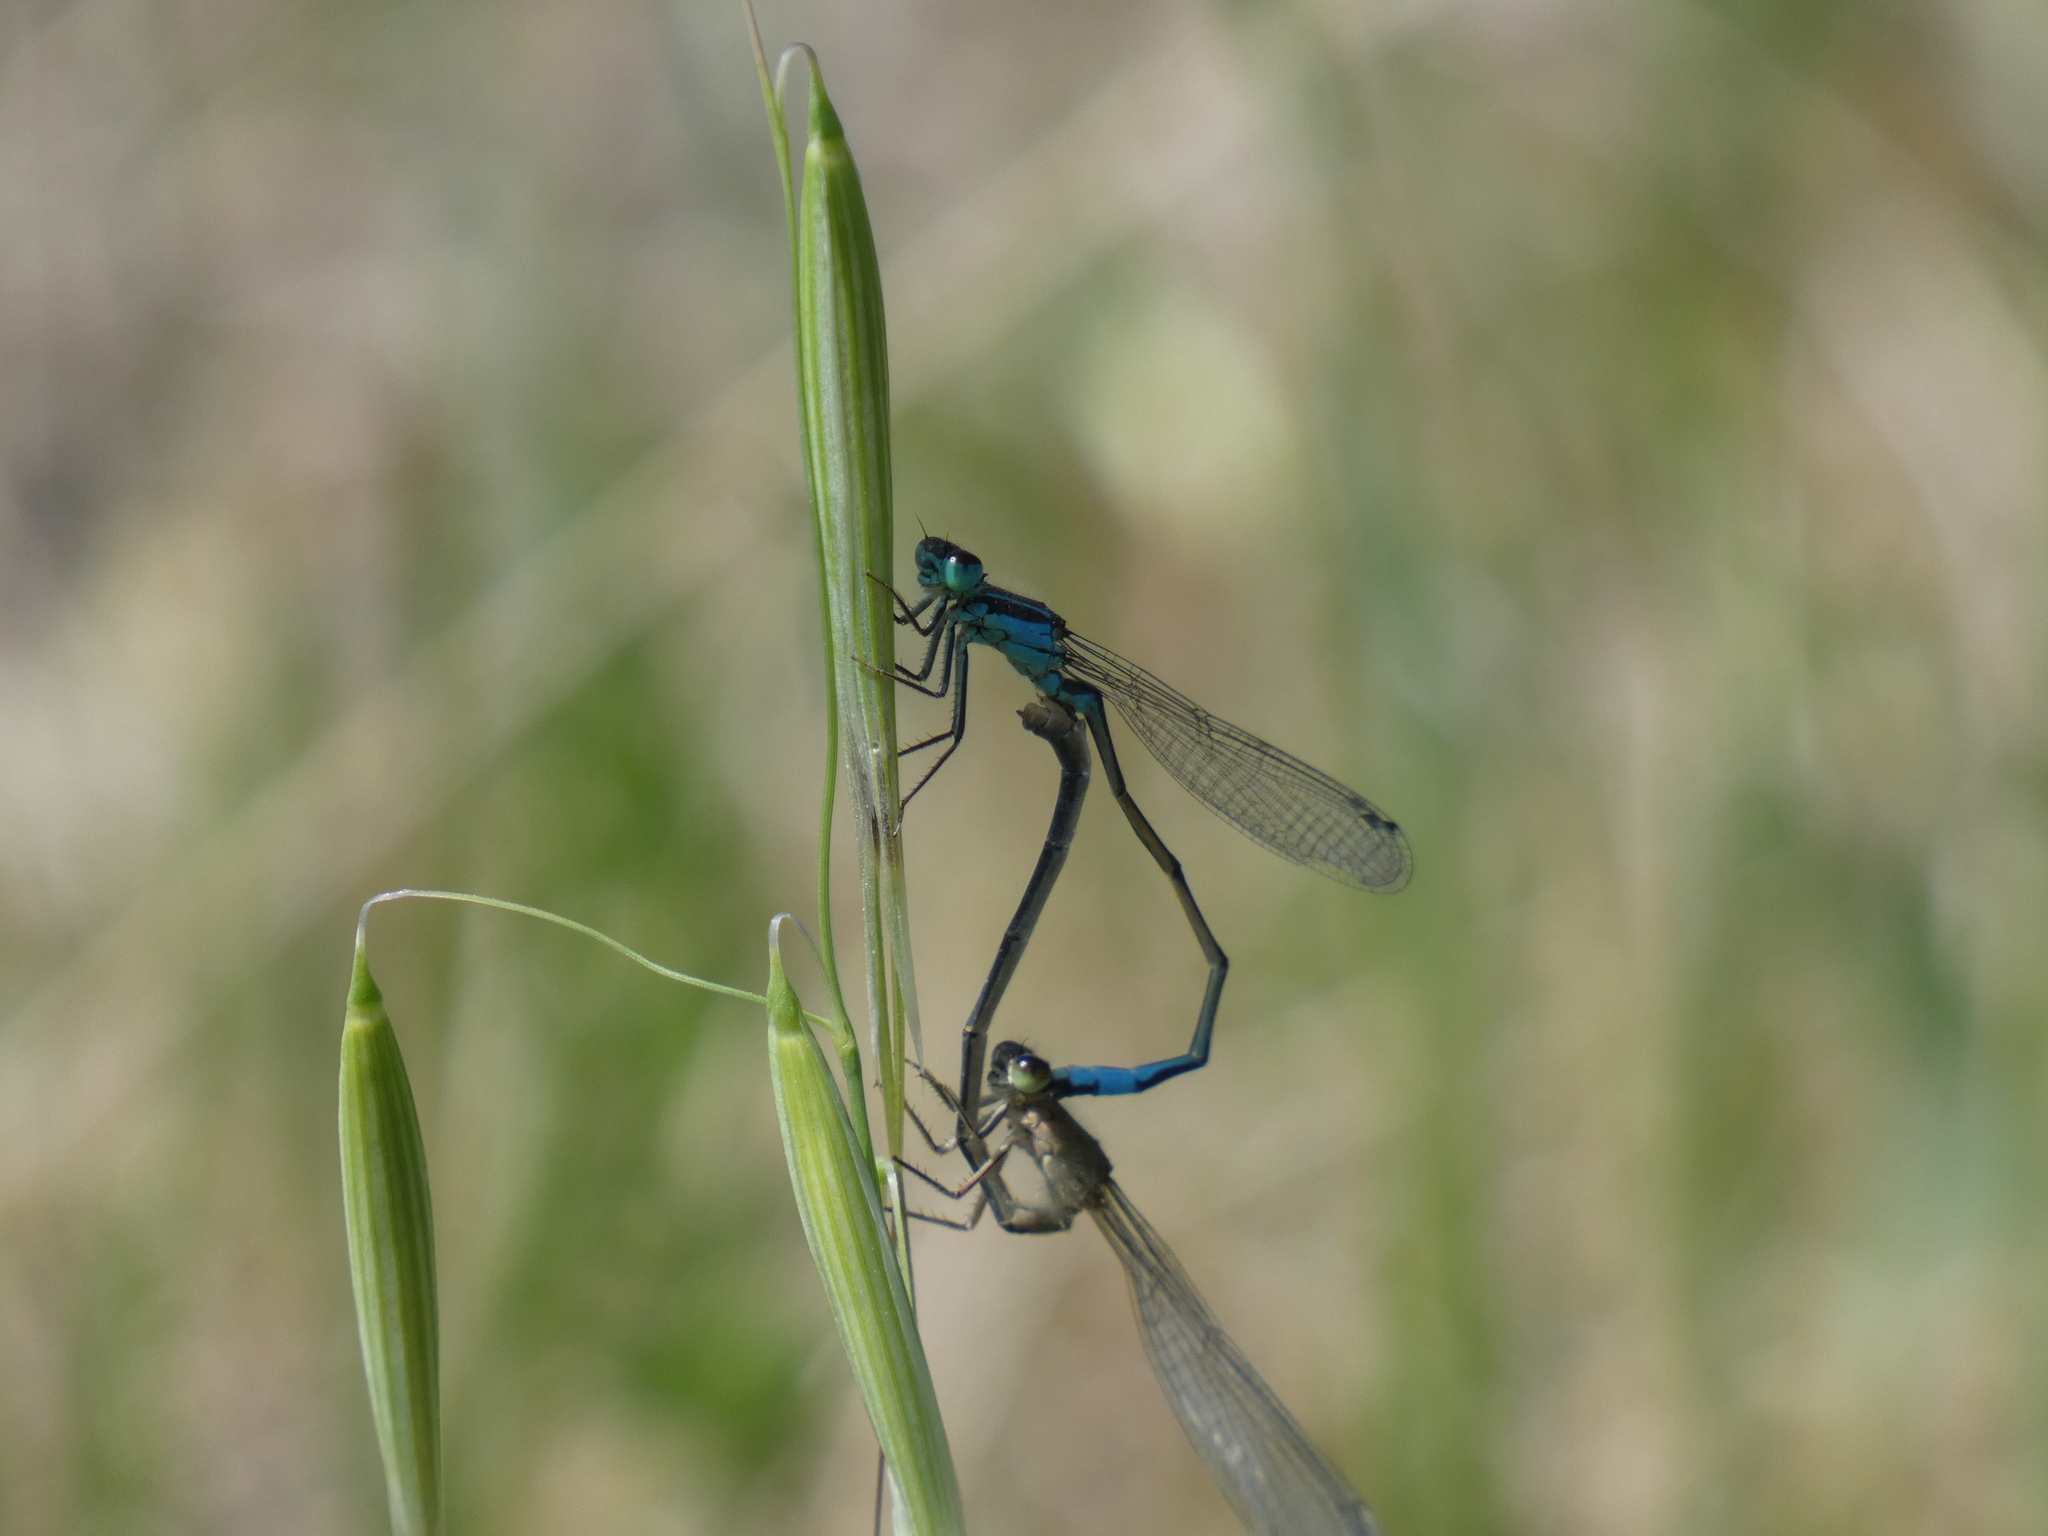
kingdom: Animalia
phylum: Arthropoda
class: Insecta
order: Odonata
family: Coenagrionidae
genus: Ischnura
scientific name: Ischnura elegans
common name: Blue-tailed damselfly
